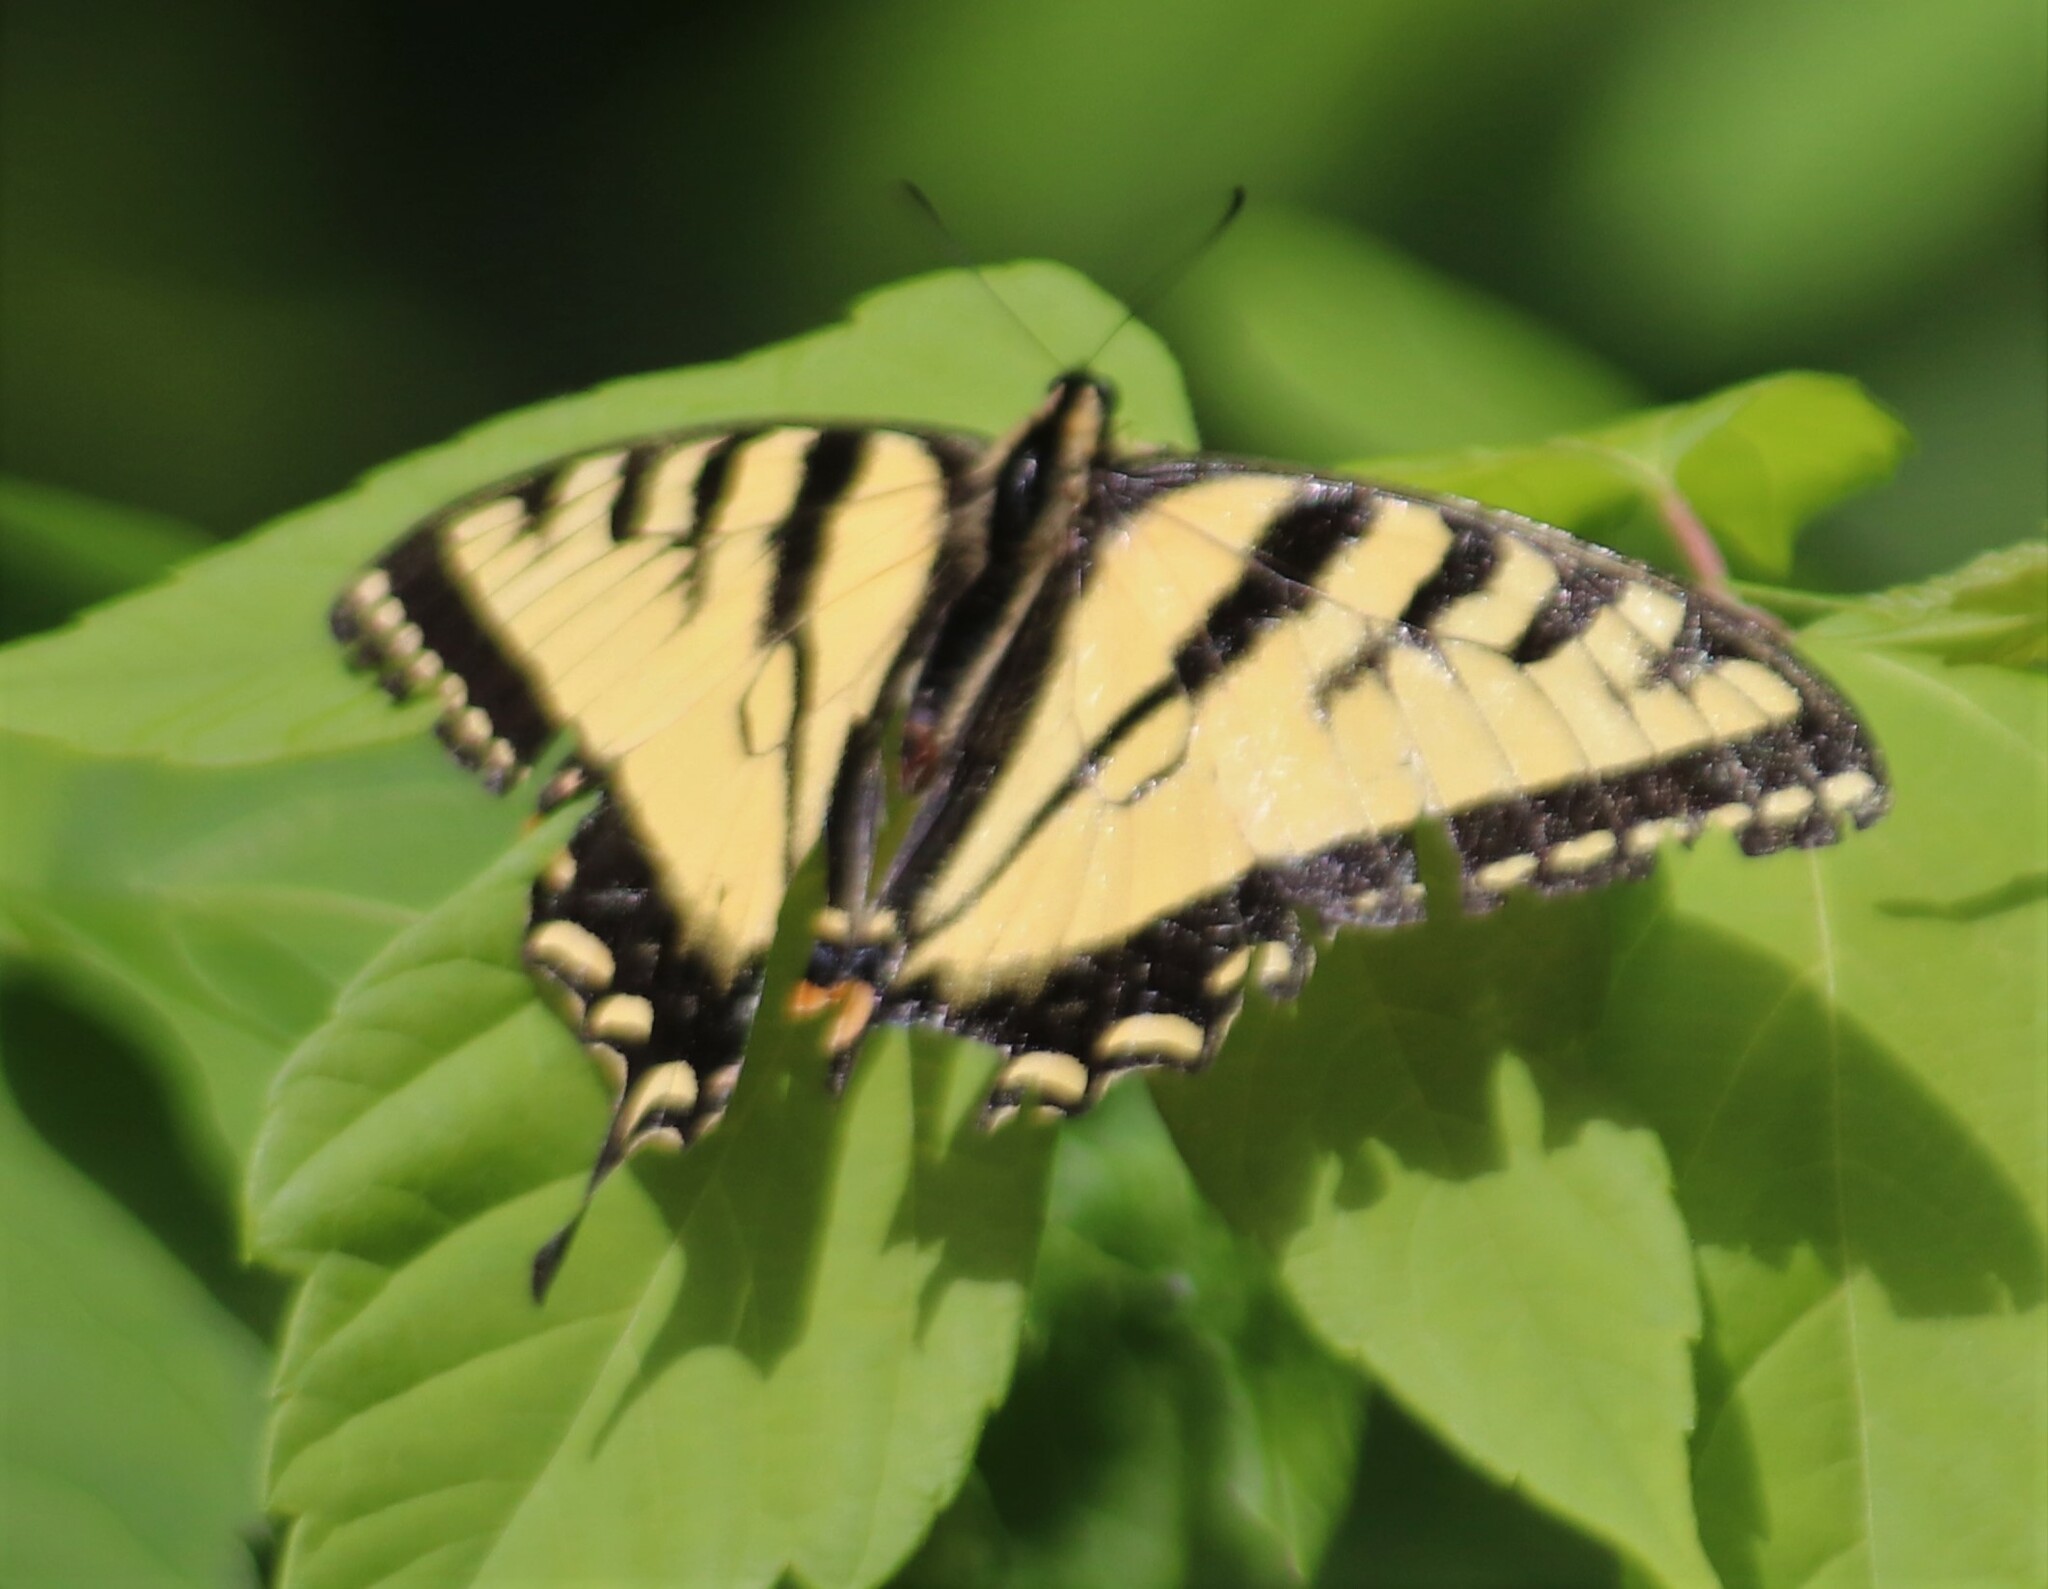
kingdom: Animalia
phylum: Arthropoda
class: Insecta
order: Lepidoptera
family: Papilionidae
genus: Papilio
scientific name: Papilio canadensis
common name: Canadian tiger swallowtail
